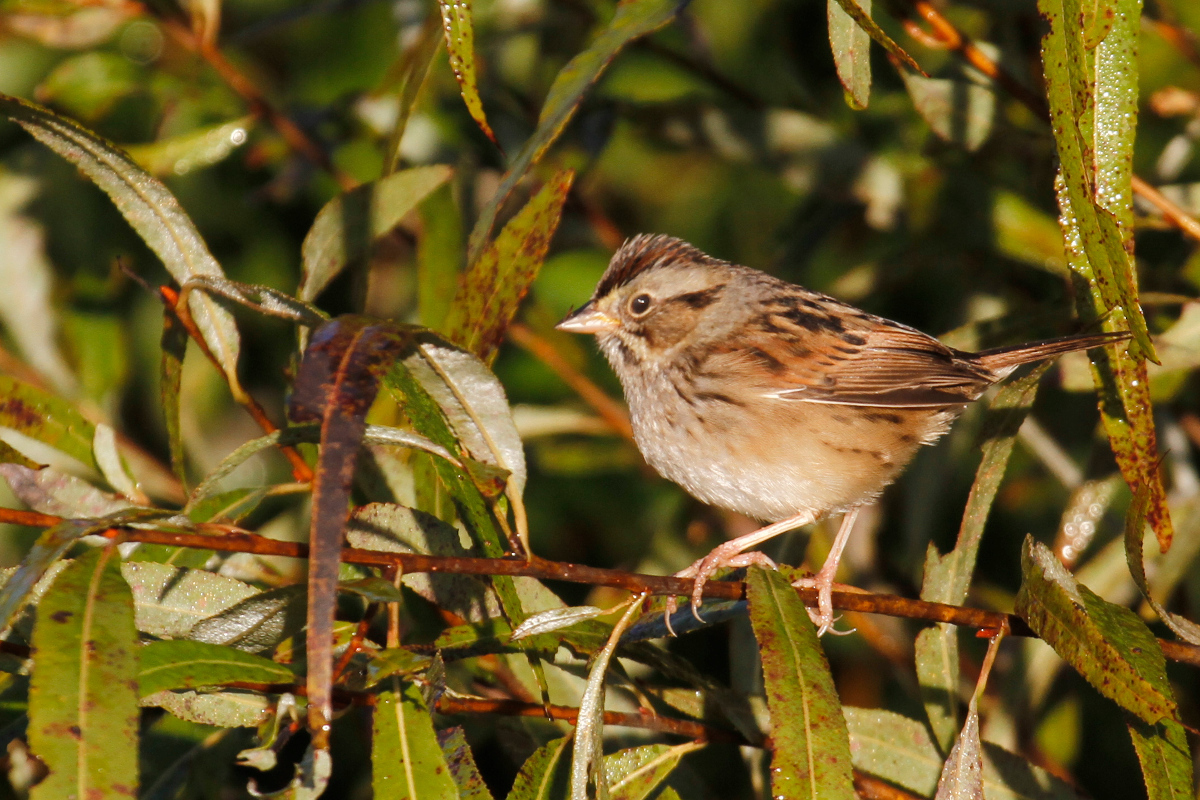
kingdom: Animalia
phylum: Chordata
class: Aves
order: Passeriformes
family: Passerellidae
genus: Melospiza
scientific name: Melospiza georgiana
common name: Swamp sparrow
